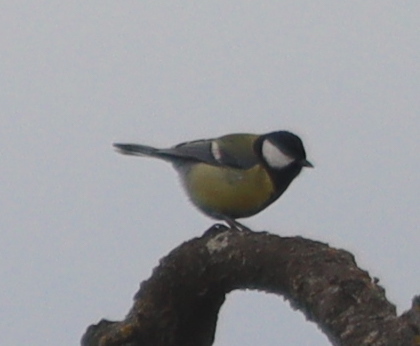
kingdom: Animalia
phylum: Chordata
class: Aves
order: Passeriformes
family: Paridae
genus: Parus
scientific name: Parus major
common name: Great tit
